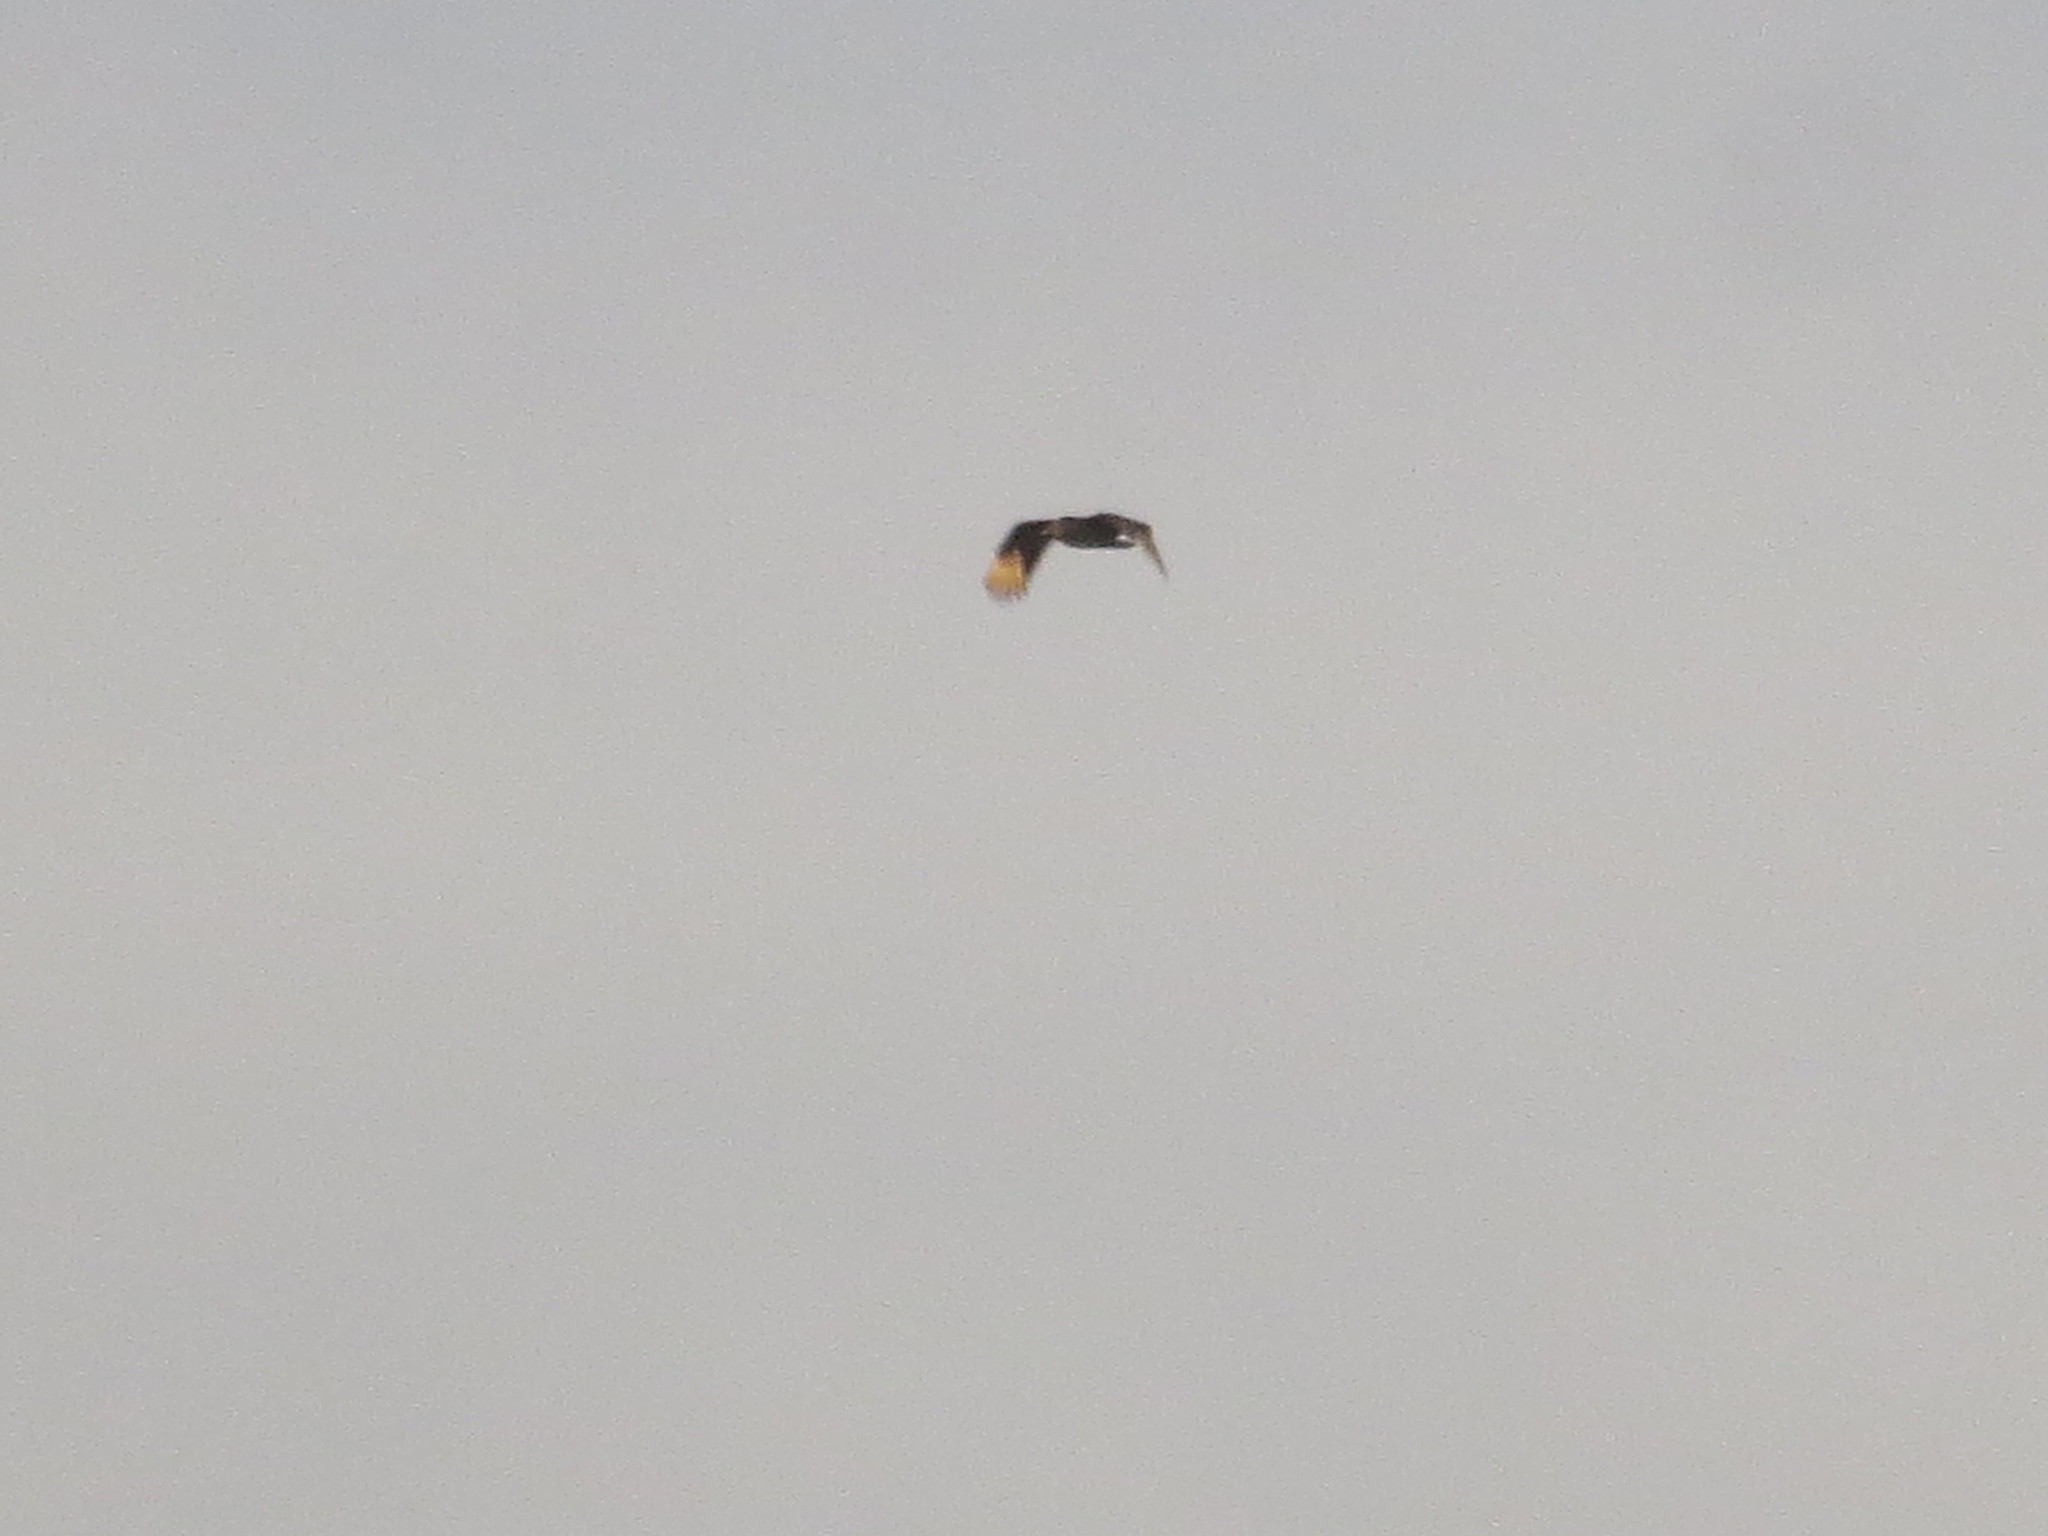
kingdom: Animalia
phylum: Chordata
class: Aves
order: Accipitriformes
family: Cathartidae
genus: Coragyps
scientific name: Coragyps atratus
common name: Black vulture
